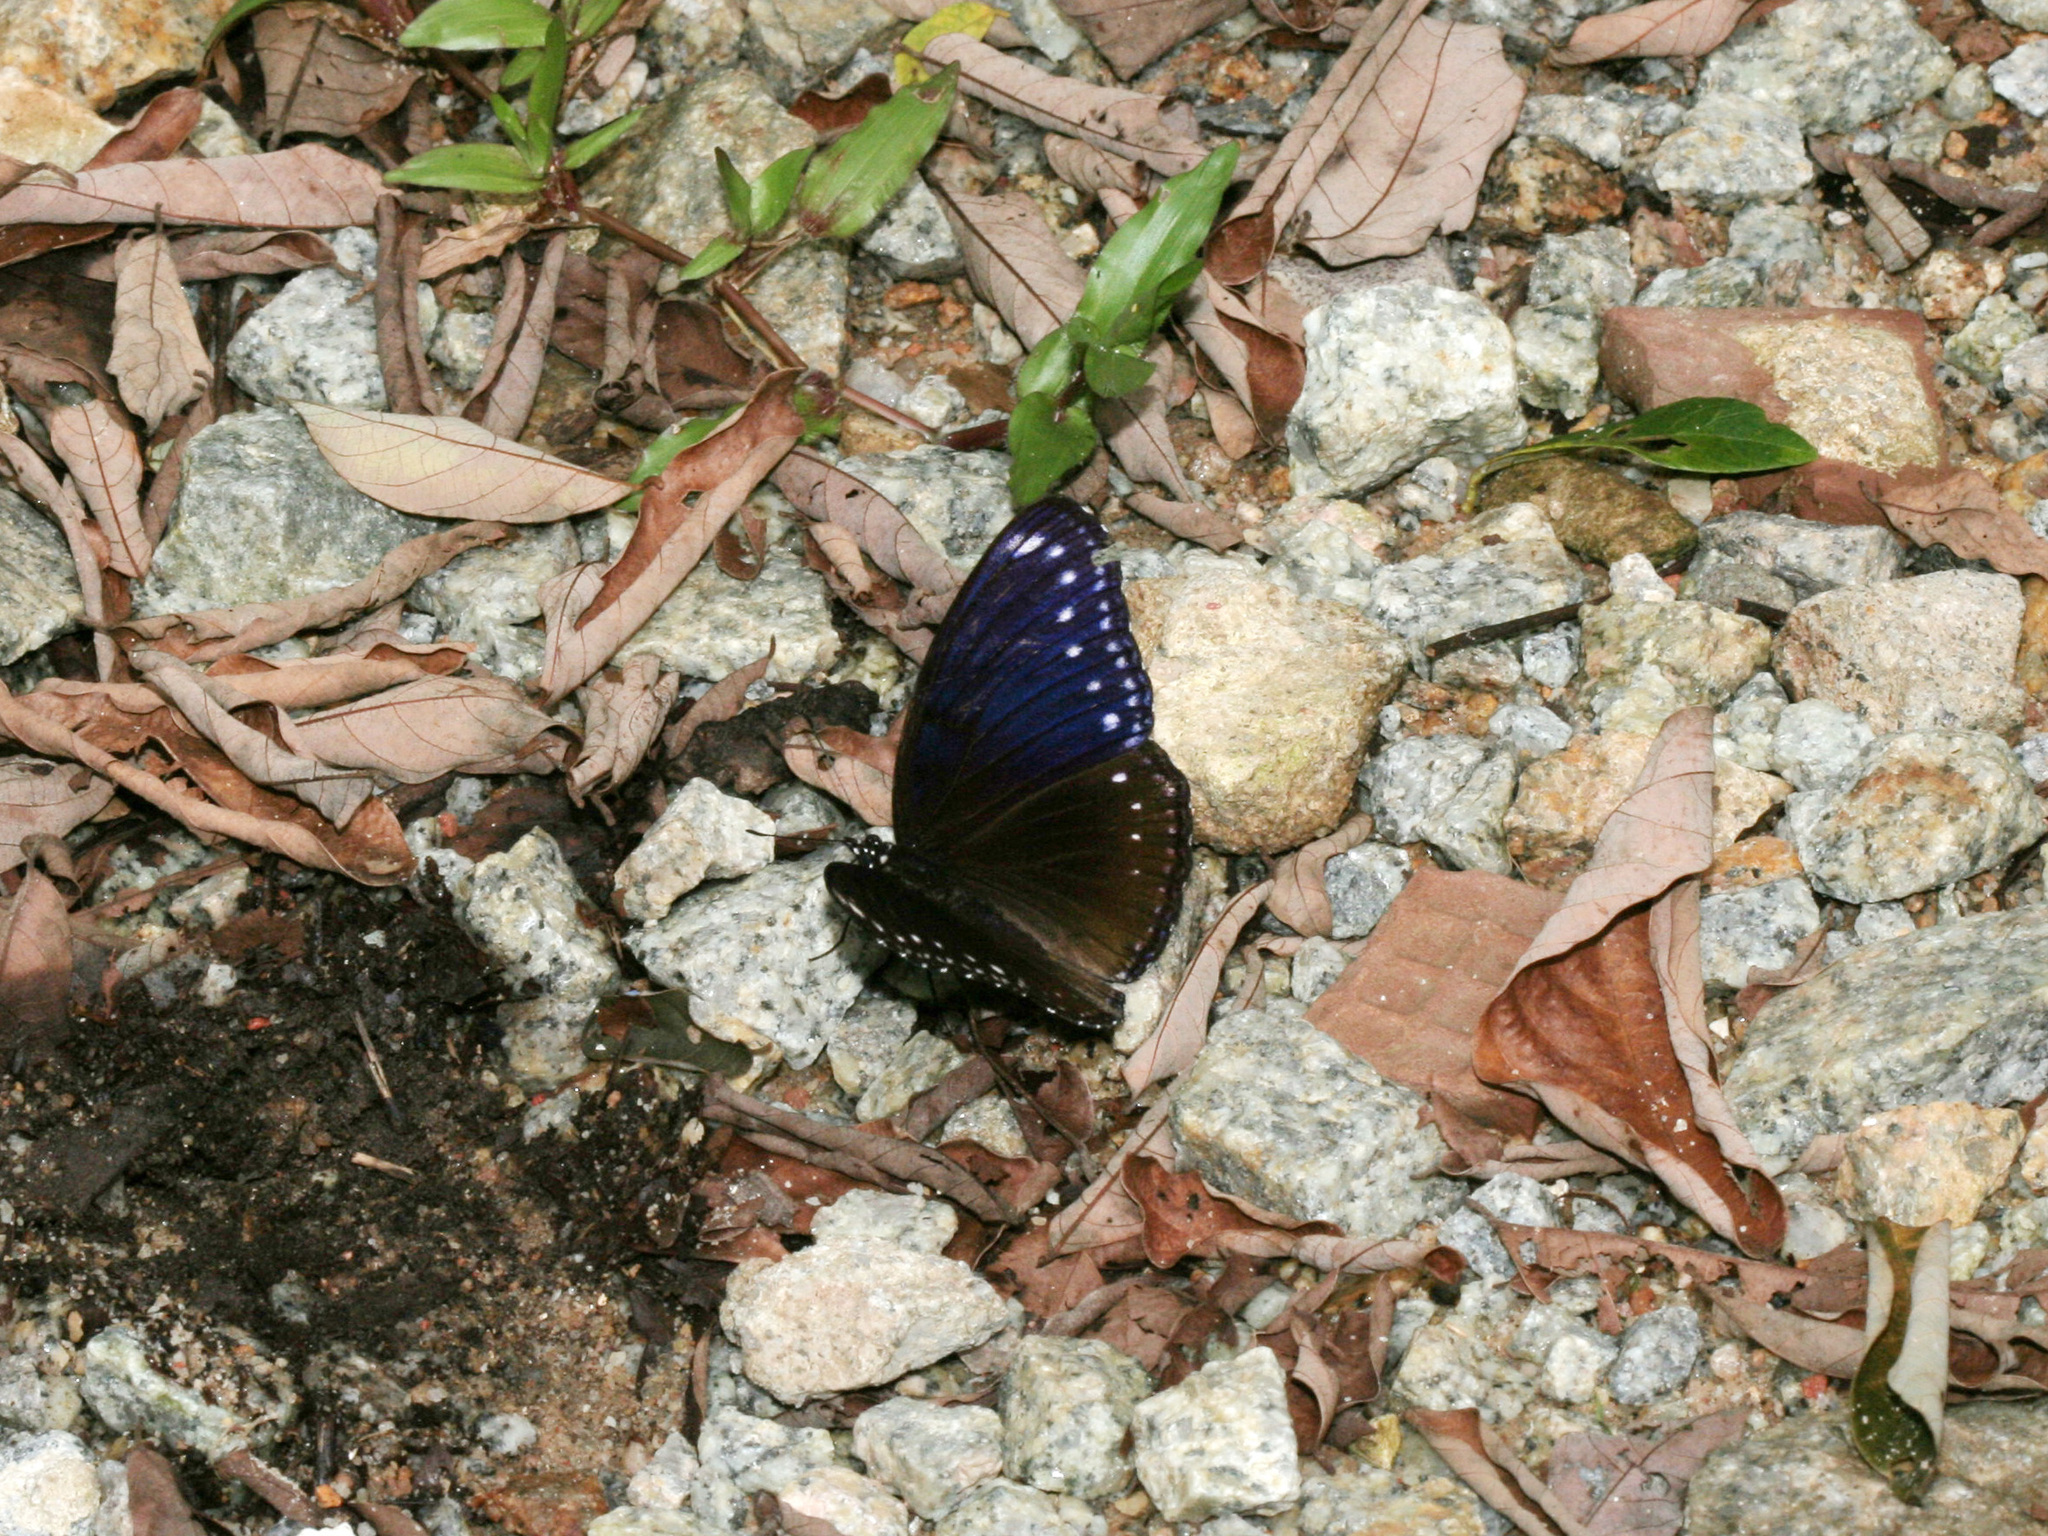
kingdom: Animalia
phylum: Arthropoda
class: Insecta
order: Lepidoptera
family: Nymphalidae
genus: Hypolimnas
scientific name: Hypolimnas anomala
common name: Malayan eggfly
